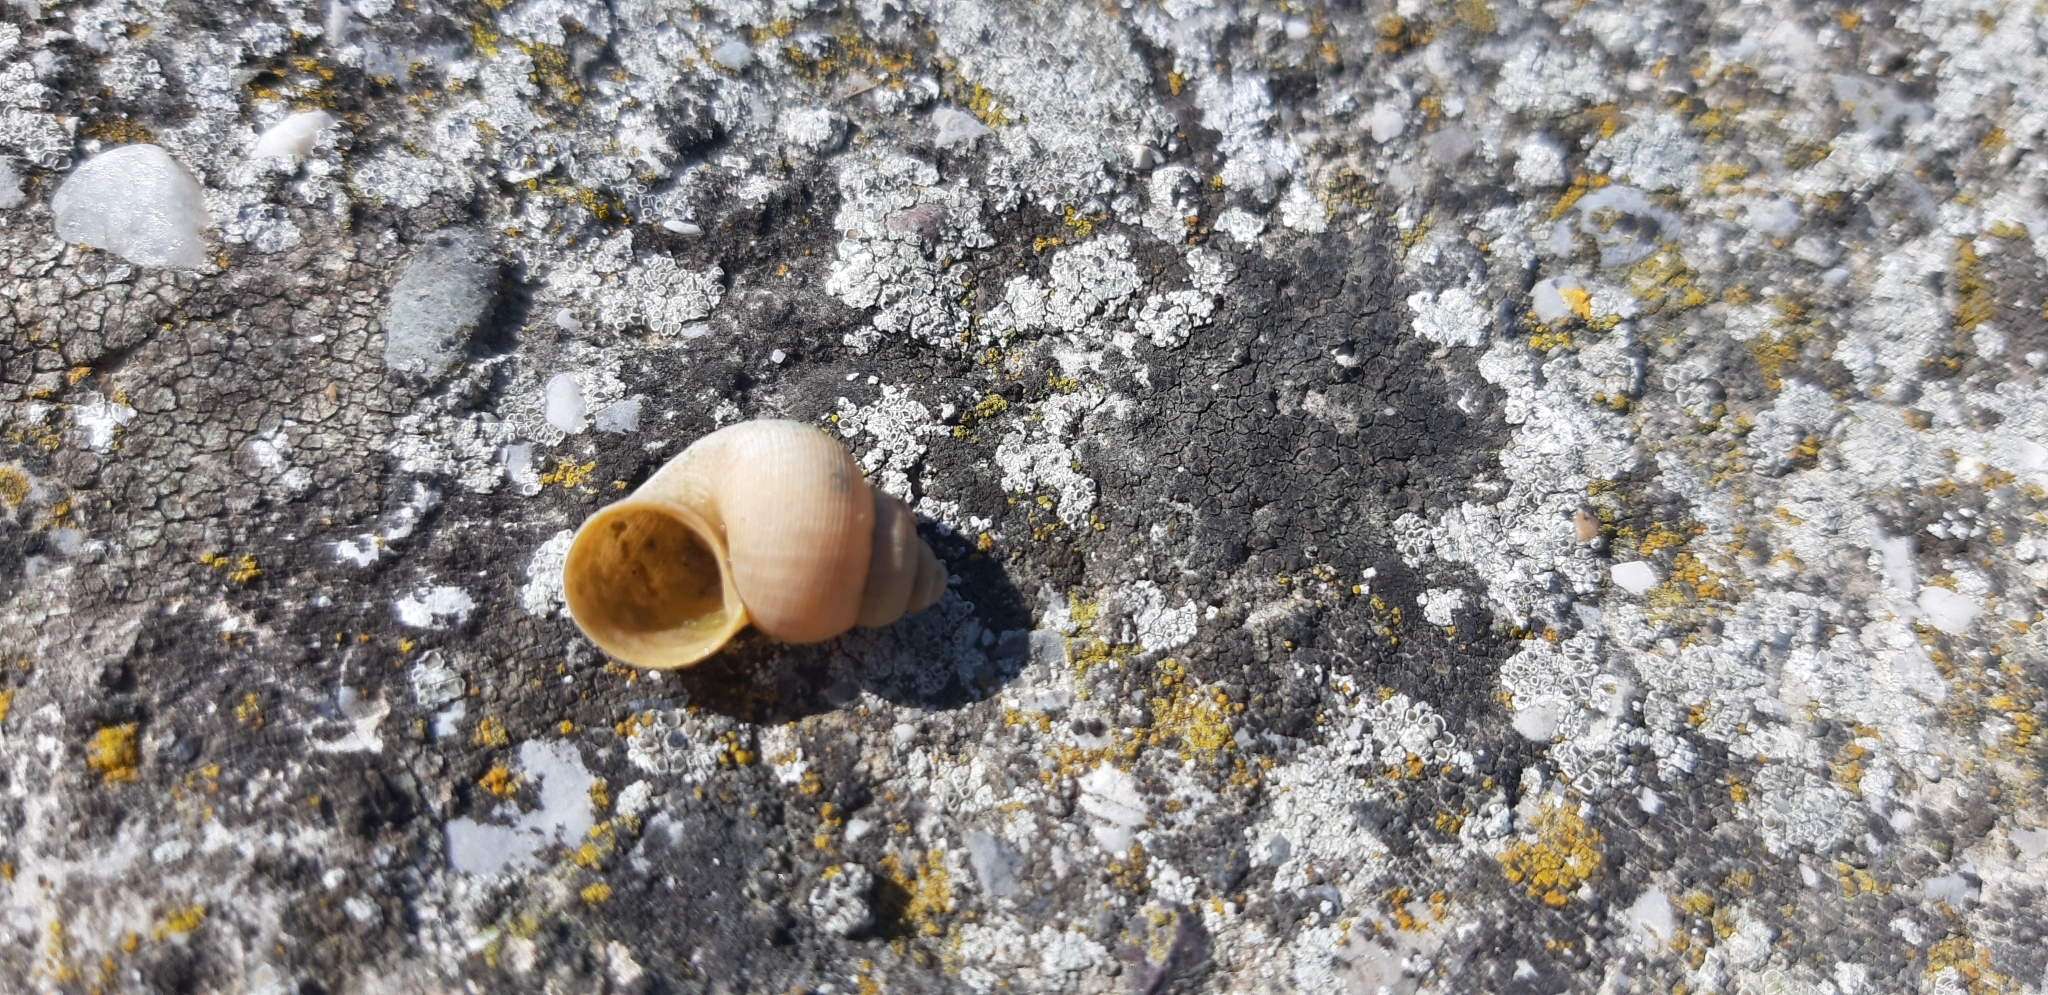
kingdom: Animalia
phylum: Mollusca
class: Gastropoda
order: Littorinimorpha
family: Pomatiidae
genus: Pomatias
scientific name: Pomatias elegans
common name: Red-mouthed snail
